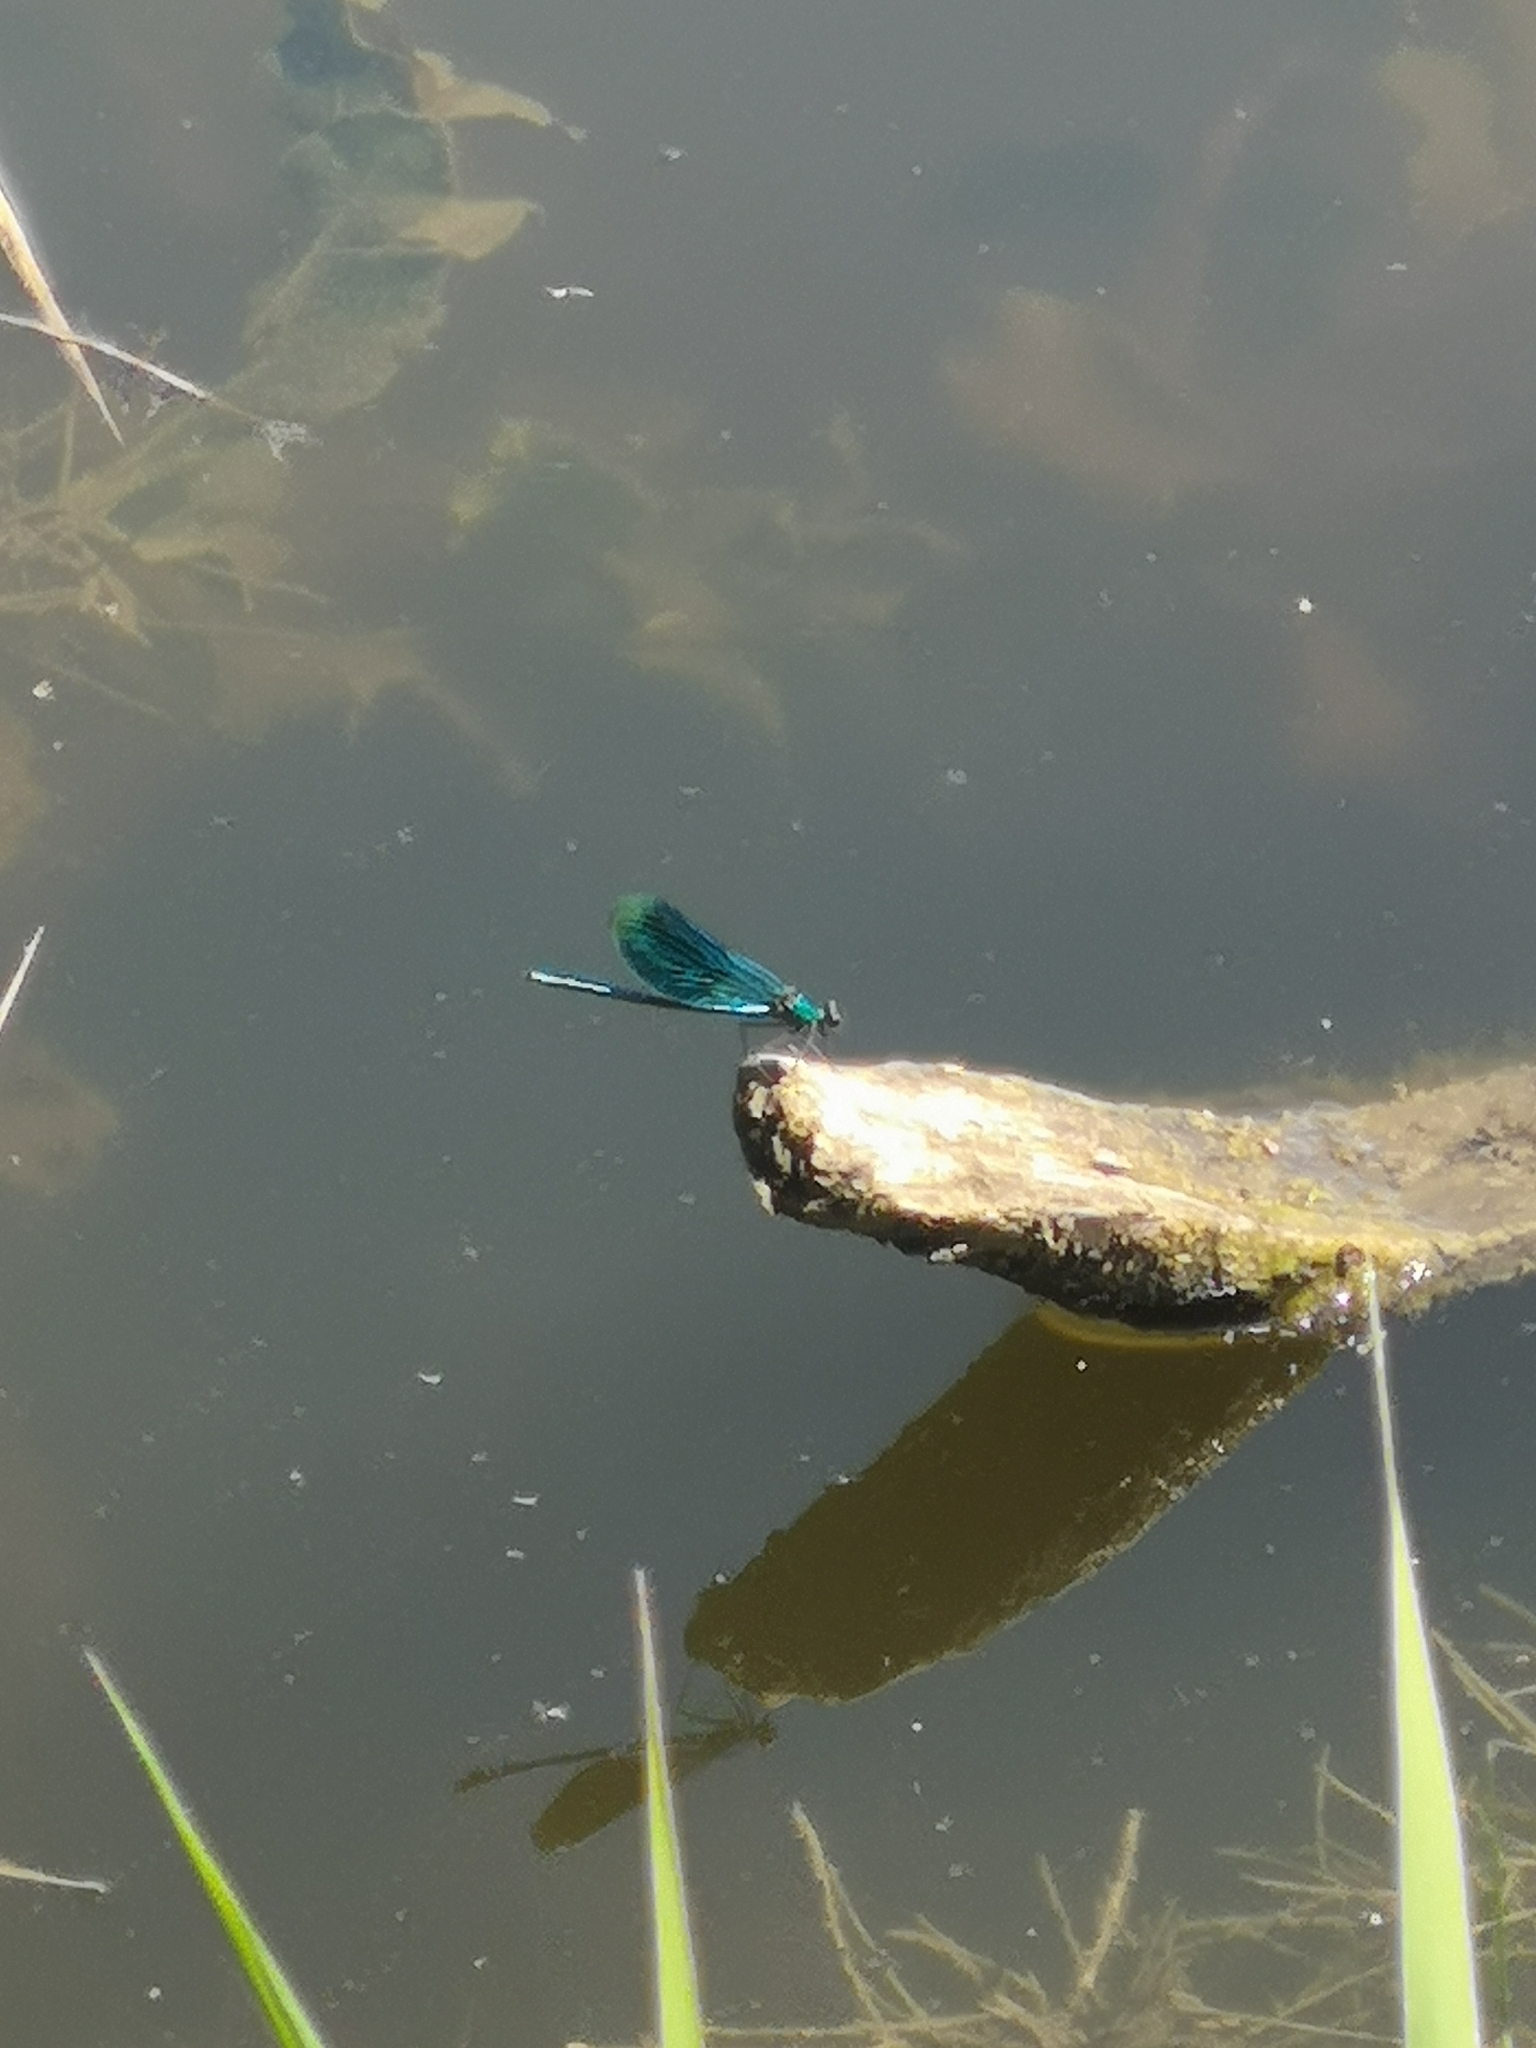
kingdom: Animalia
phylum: Arthropoda
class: Insecta
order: Odonata
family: Calopterygidae
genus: Calopteryx
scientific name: Calopteryx splendens
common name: Banded demoiselle
